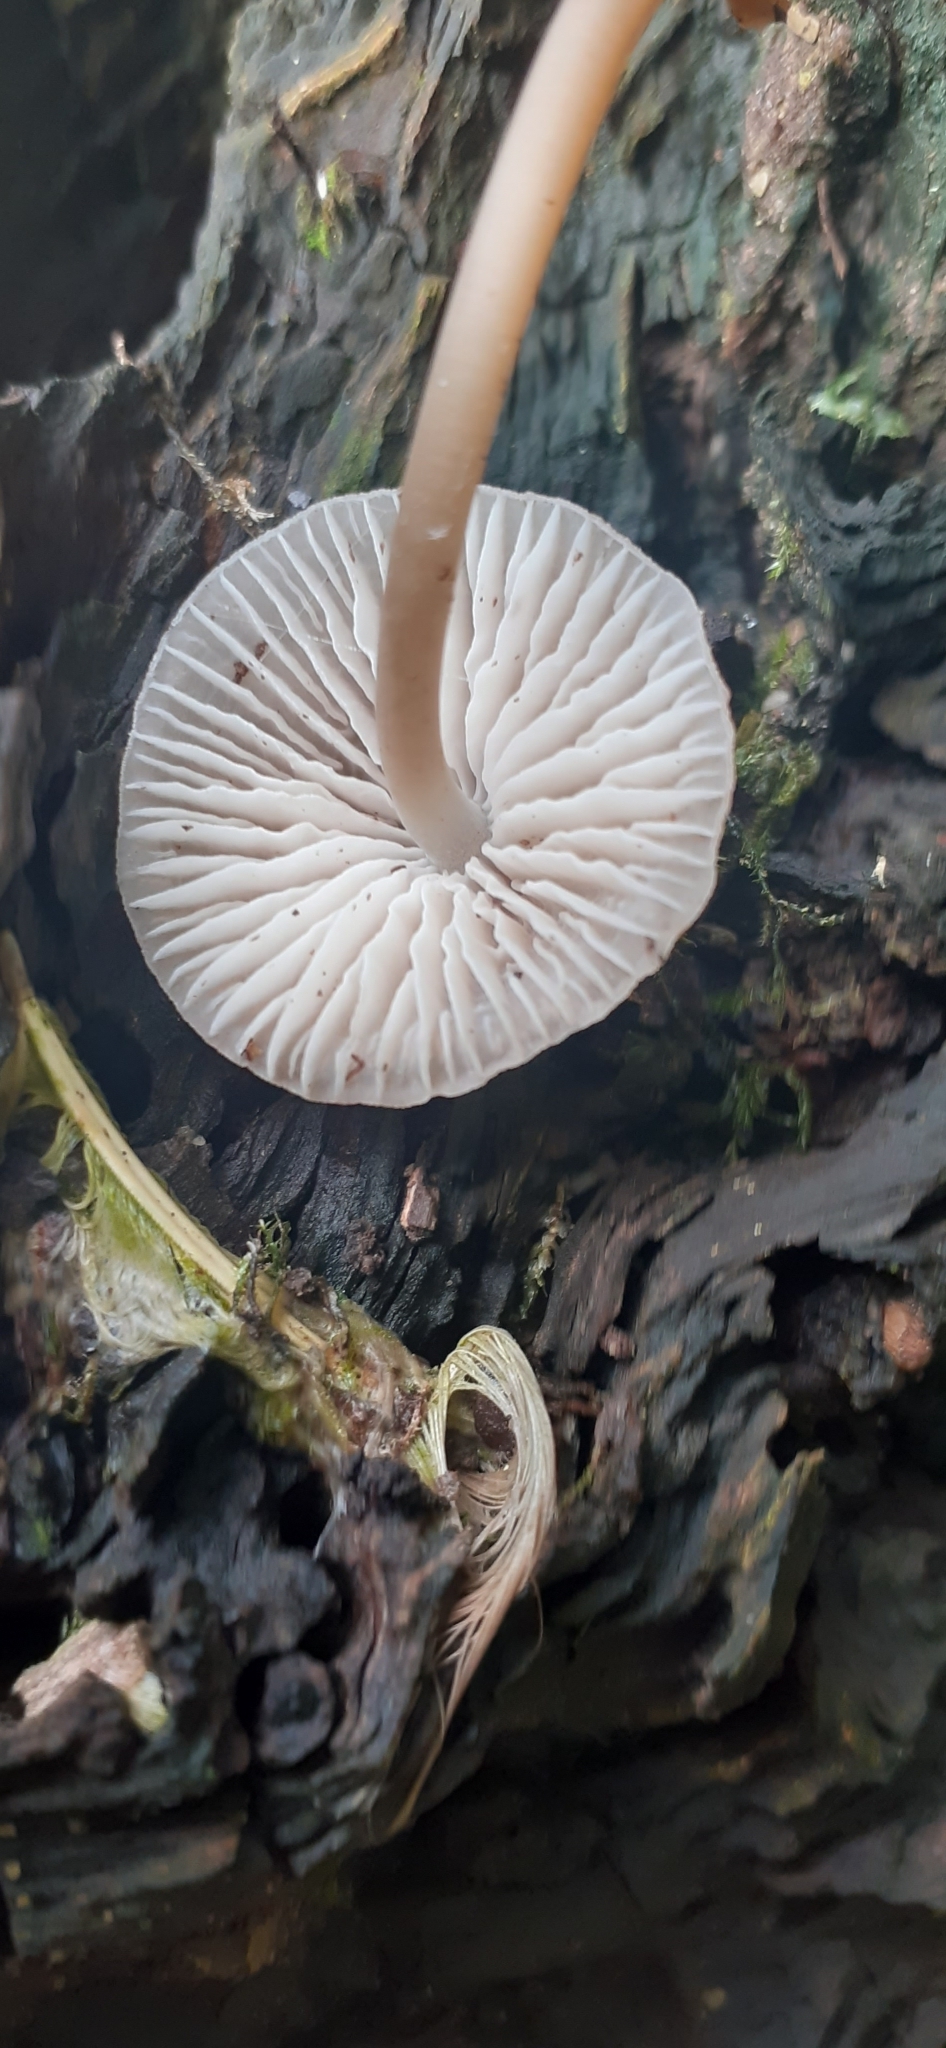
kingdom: Fungi
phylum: Basidiomycota
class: Agaricomycetes
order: Agaricales
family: Mycenaceae
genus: Mycena
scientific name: Mycena galericulata
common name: Bonnet mycena
